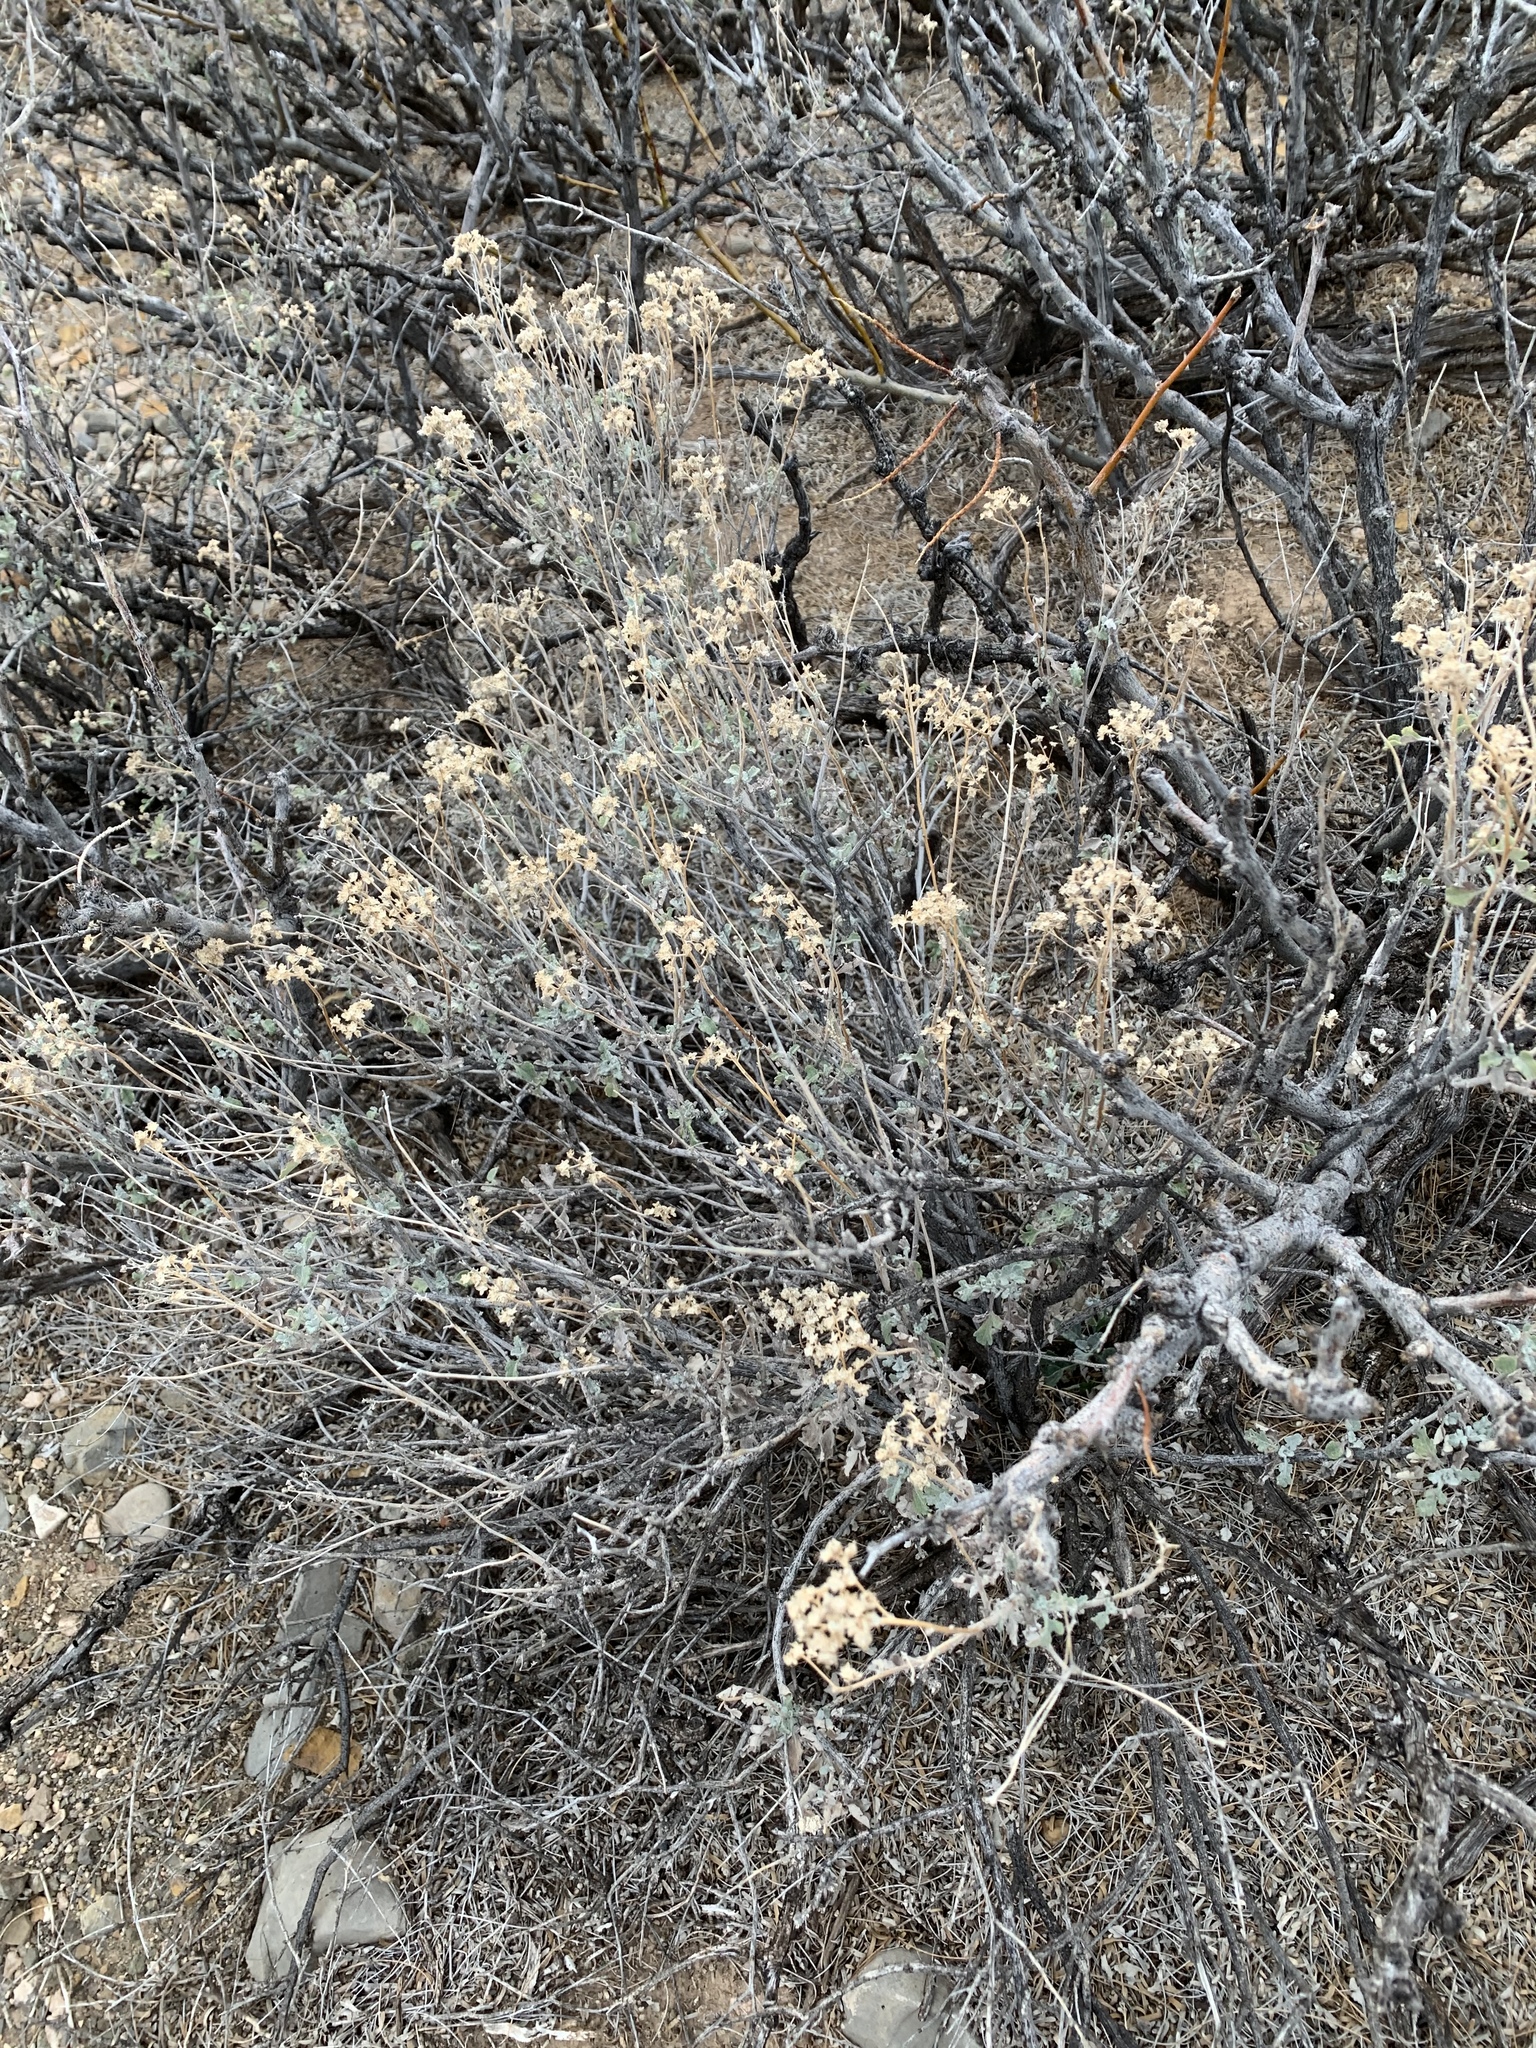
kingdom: Plantae
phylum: Tracheophyta
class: Magnoliopsida
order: Asterales
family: Asteraceae
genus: Parthenium
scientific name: Parthenium incanum
